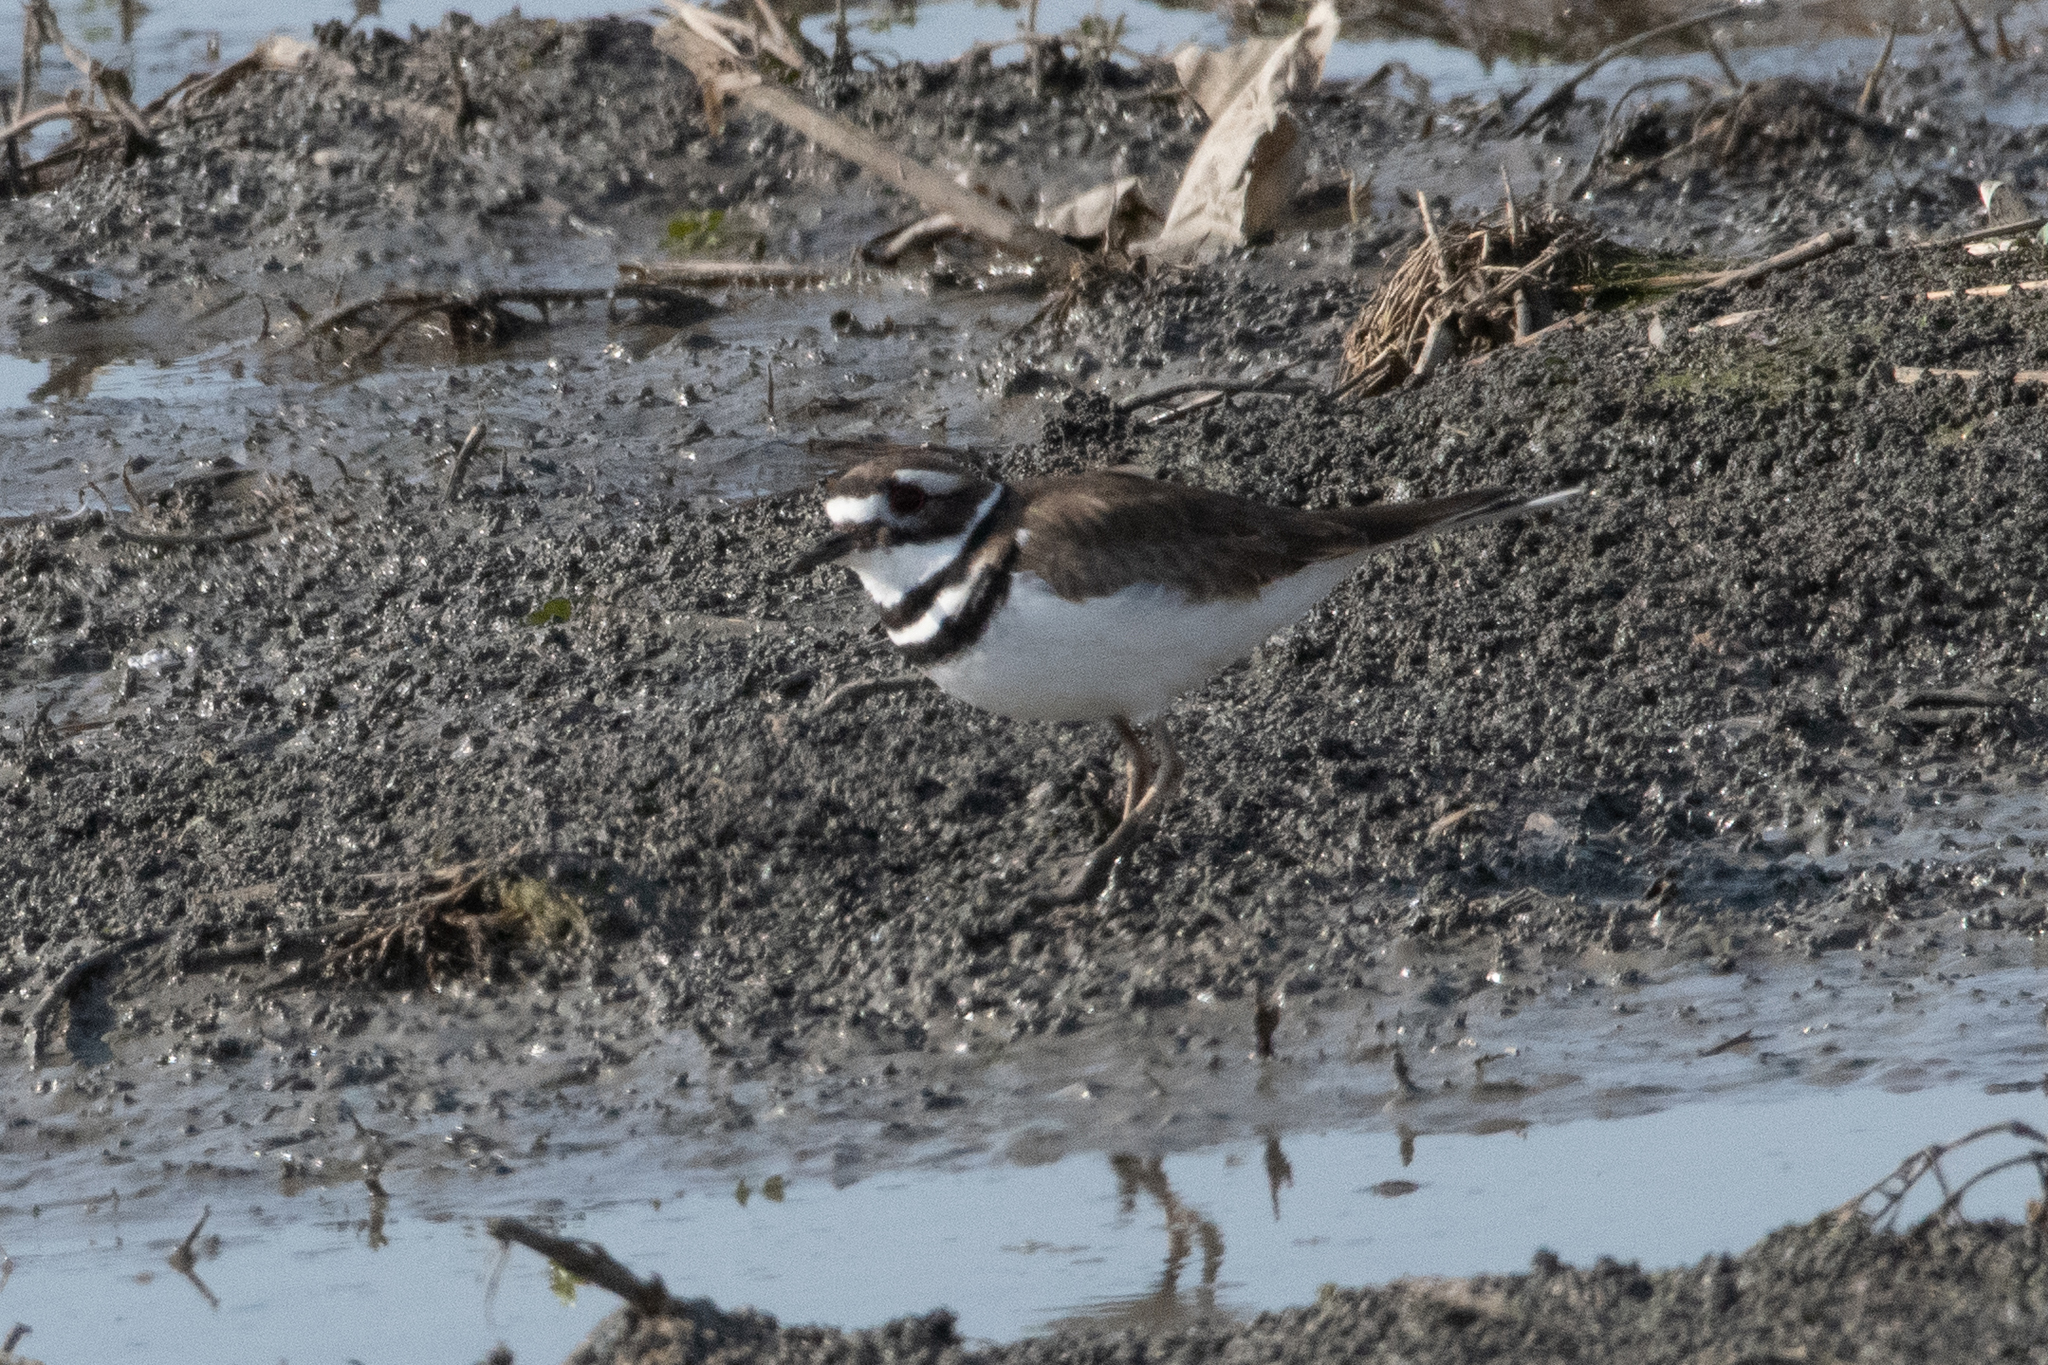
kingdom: Animalia
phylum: Chordata
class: Aves
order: Charadriiformes
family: Charadriidae
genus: Charadrius
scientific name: Charadrius vociferus
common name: Killdeer
